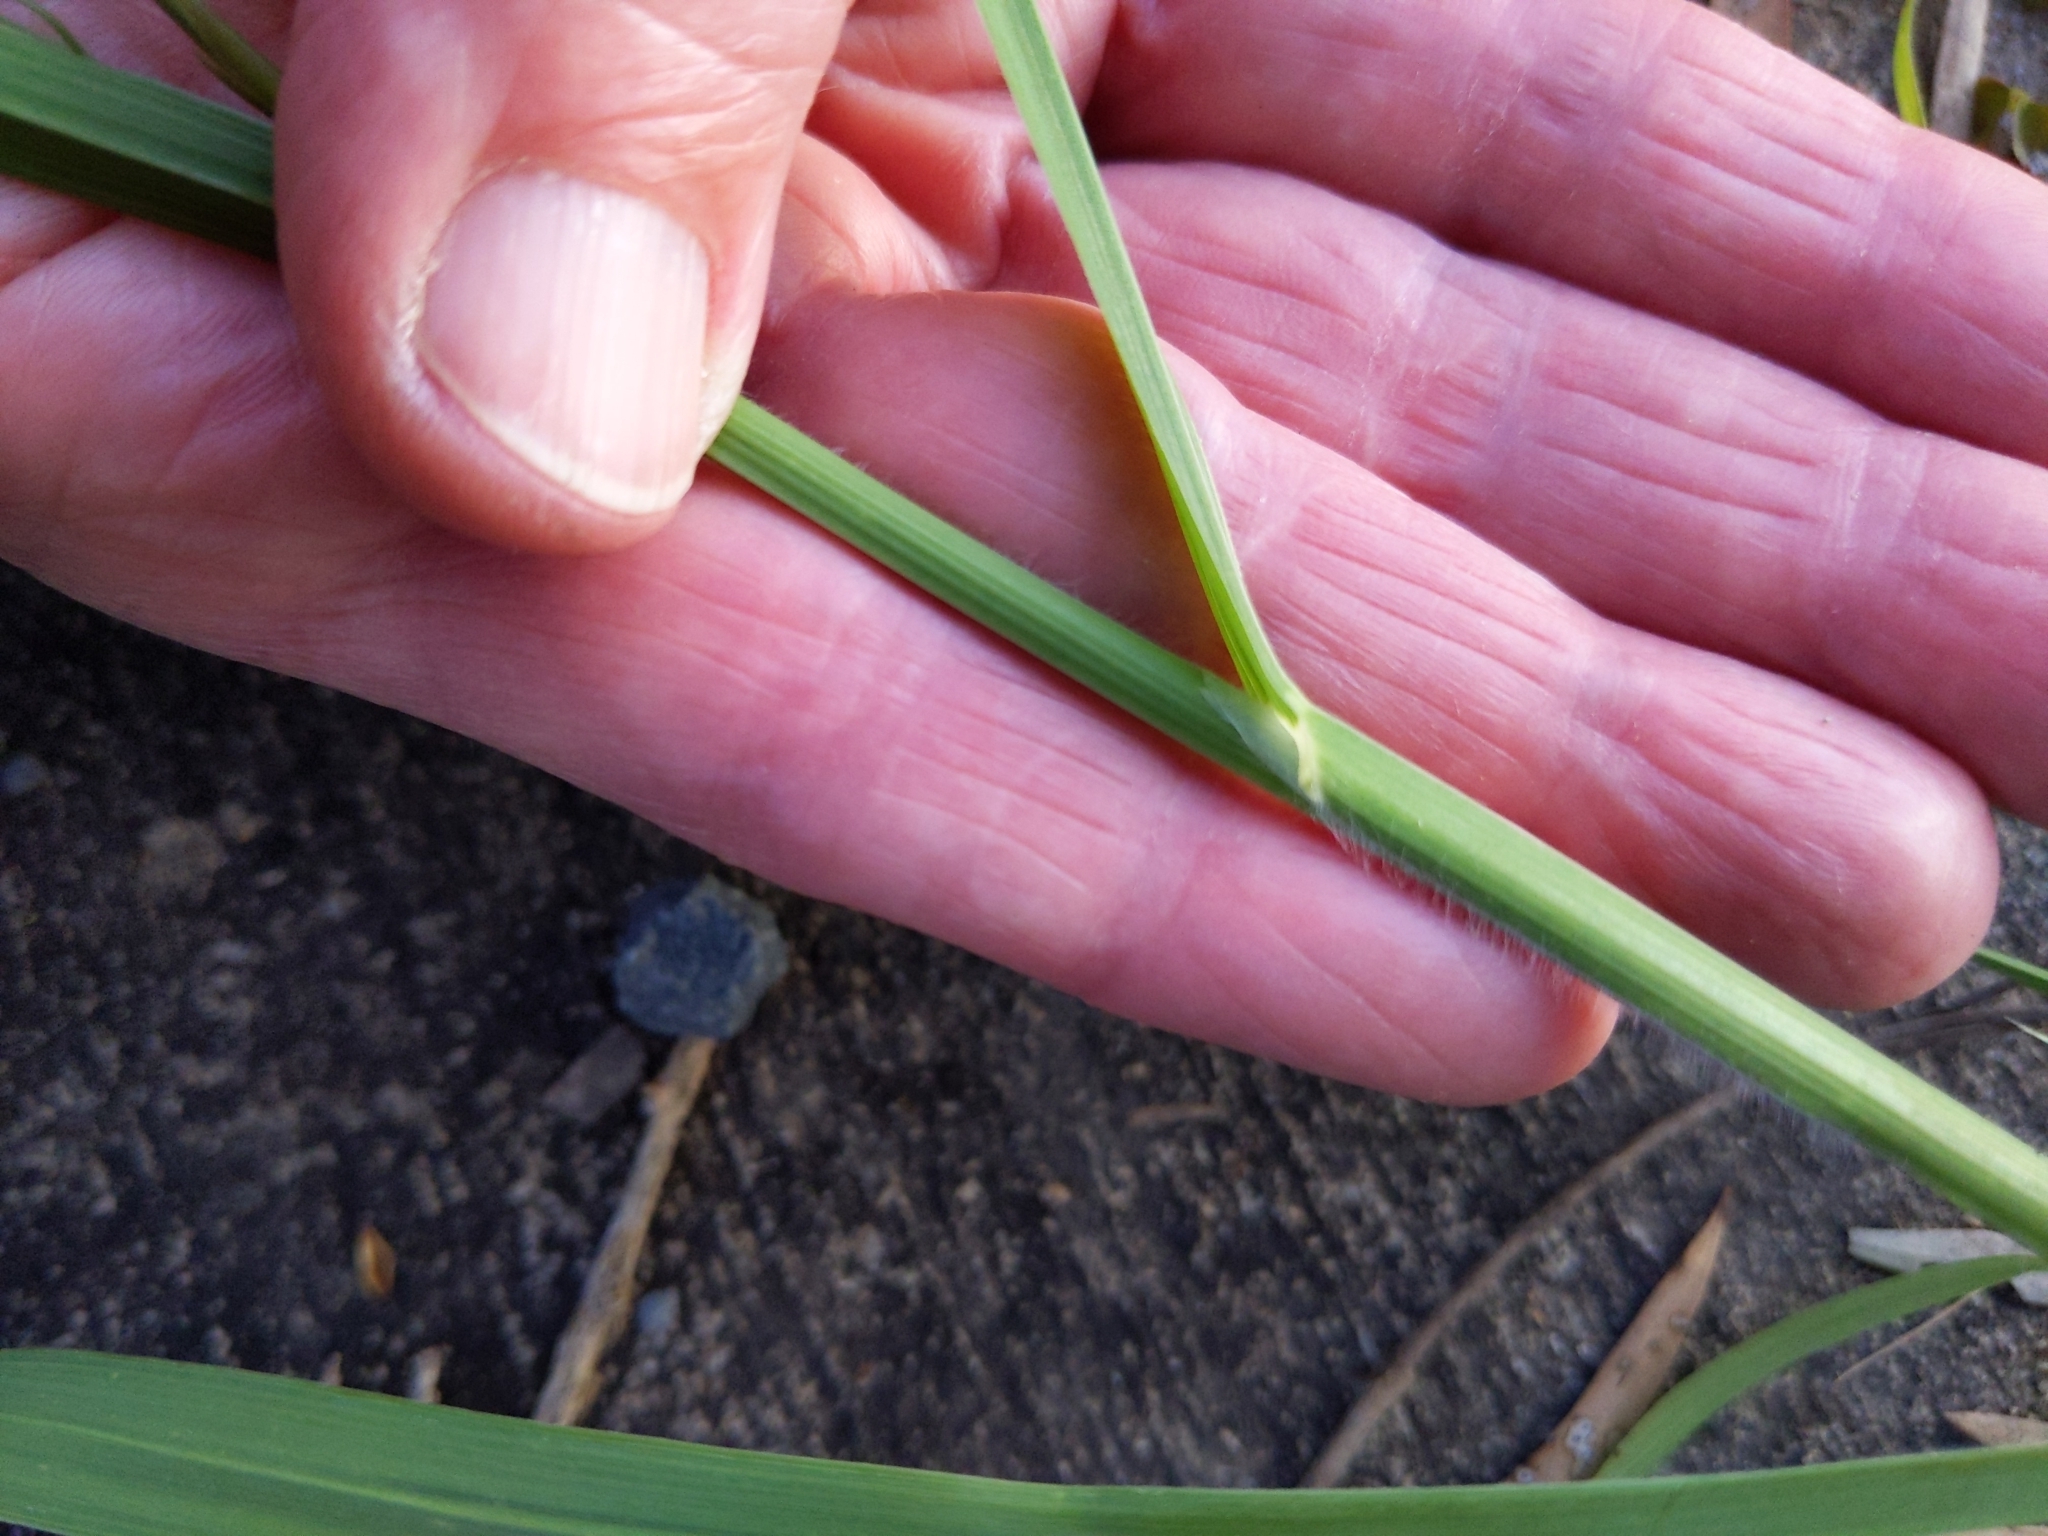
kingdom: Plantae
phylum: Tracheophyta
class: Liliopsida
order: Poales
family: Poaceae
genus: Bromus
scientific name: Bromus catharticus
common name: Rescuegrass
